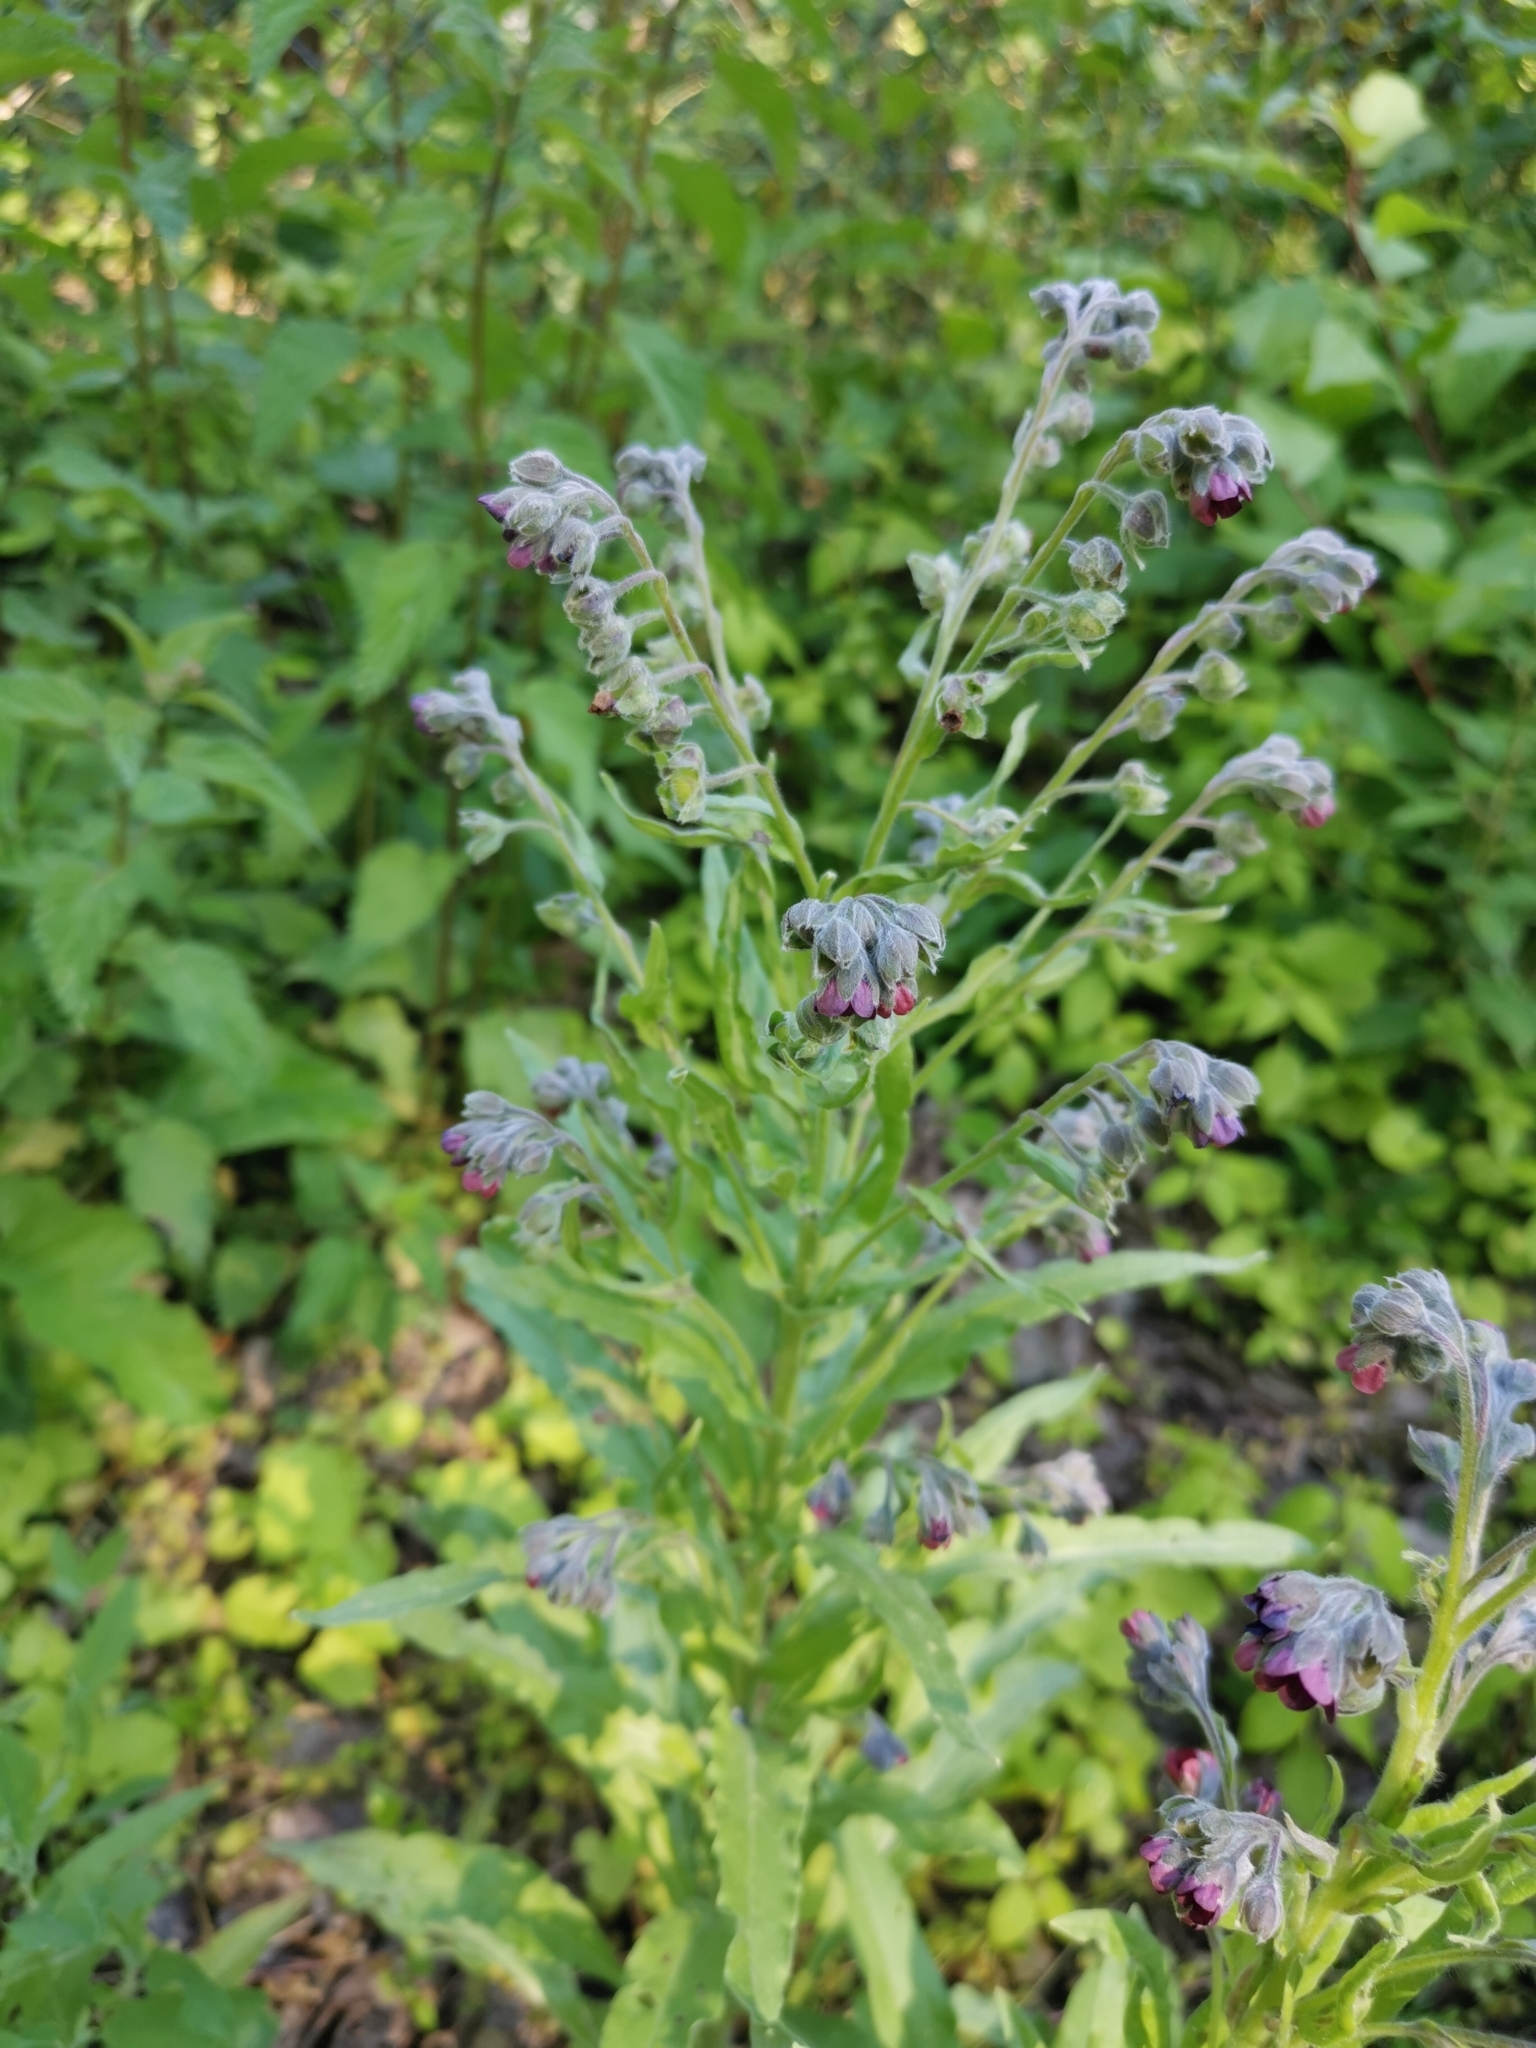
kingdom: Plantae
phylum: Tracheophyta
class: Magnoliopsida
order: Boraginales
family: Boraginaceae
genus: Cynoglossum
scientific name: Cynoglossum officinale
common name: Hound's-tongue
